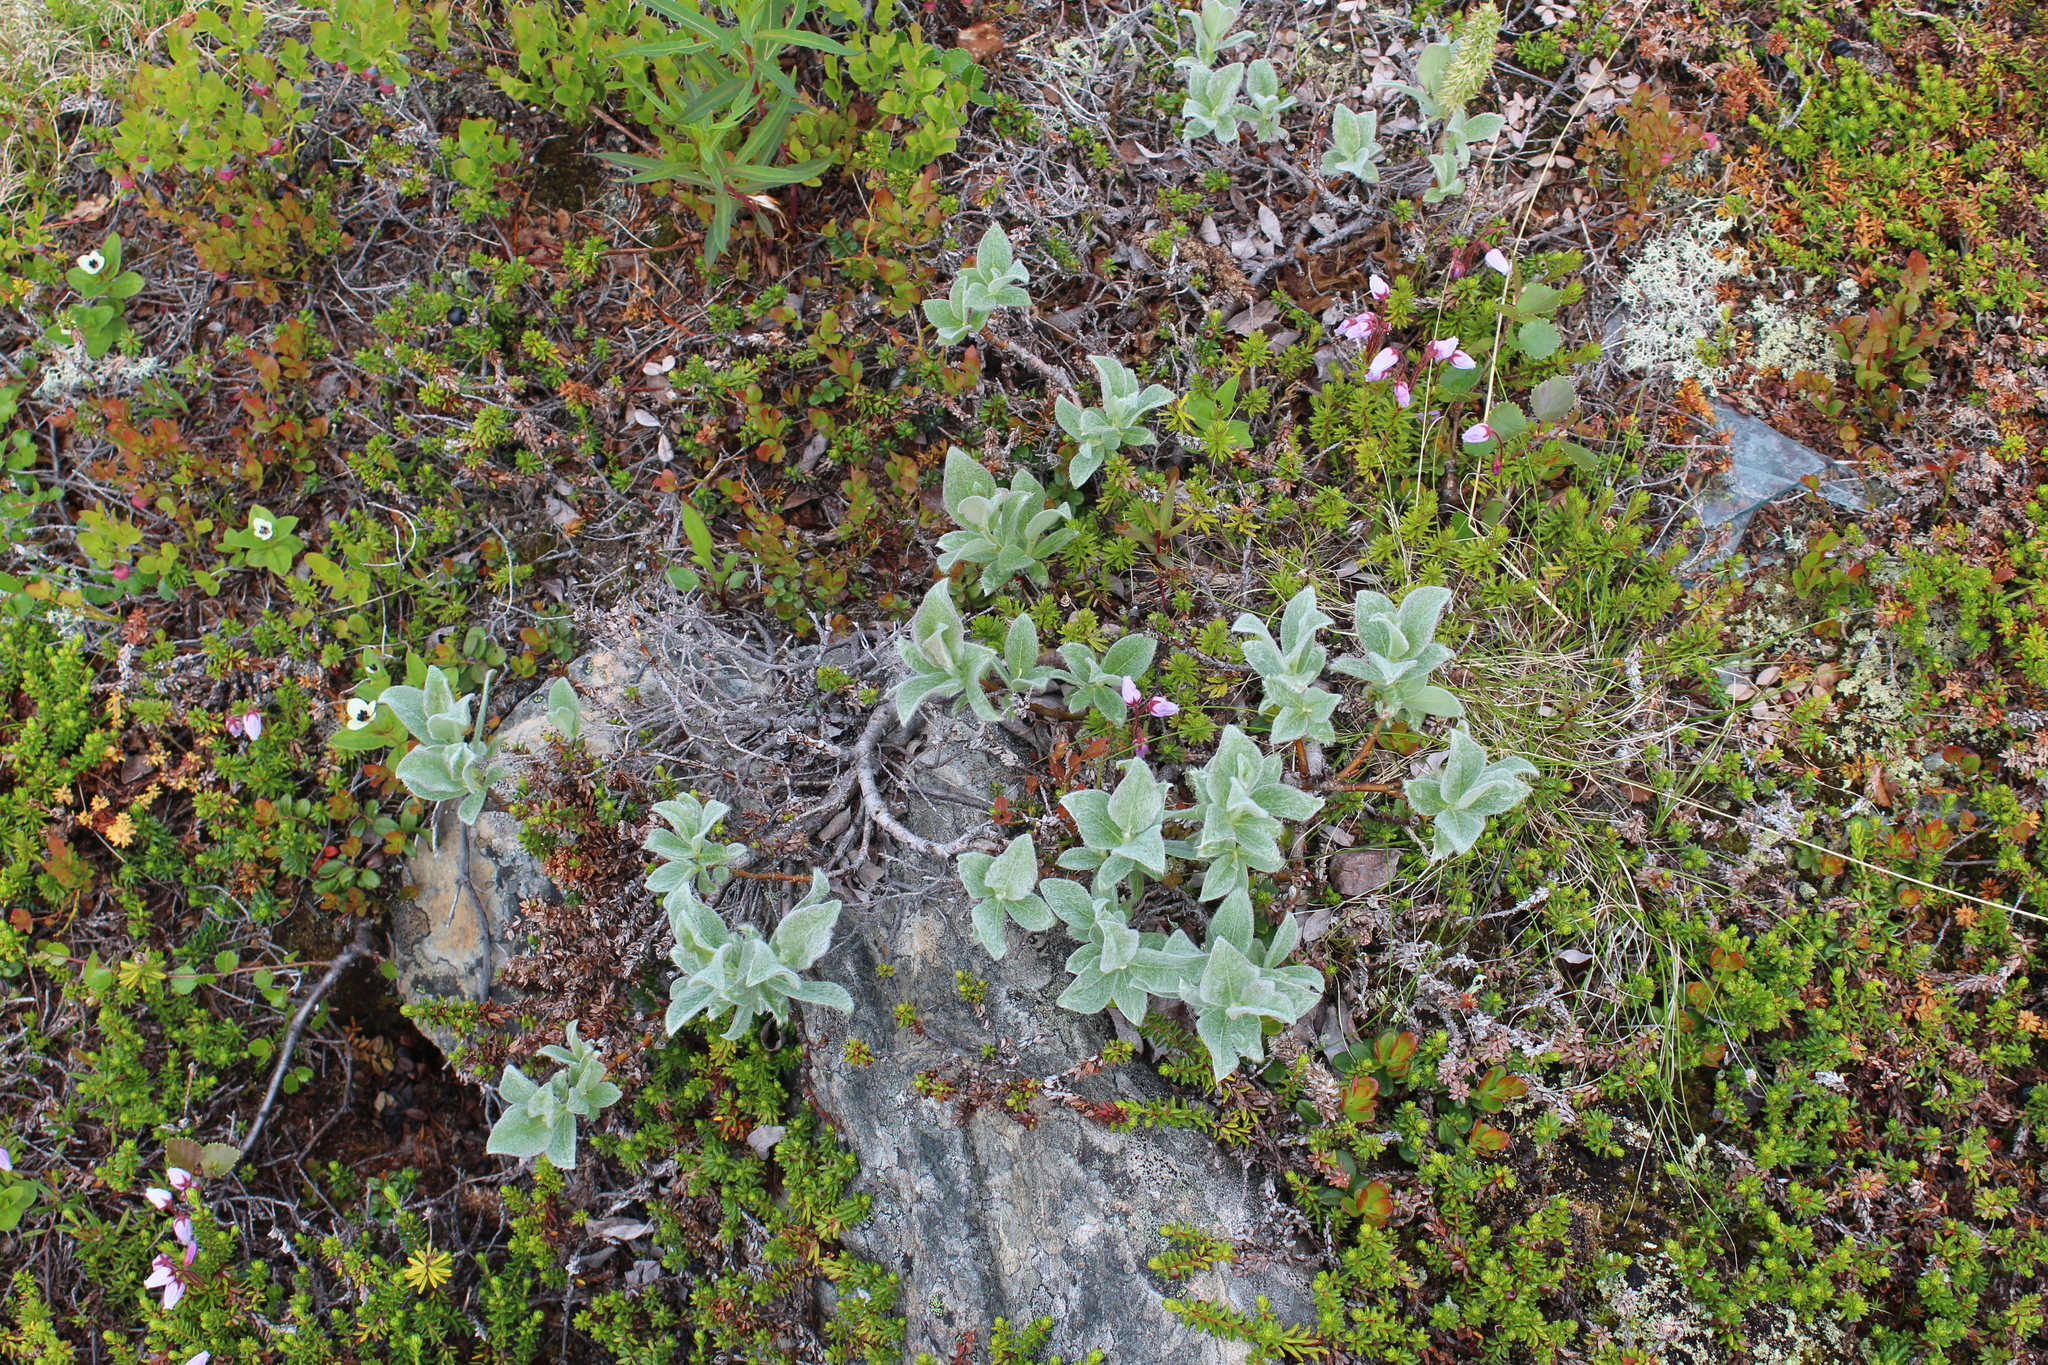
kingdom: Plantae
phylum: Tracheophyta
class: Magnoliopsida
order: Malpighiales
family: Salicaceae
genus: Salix
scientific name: Salix lanata
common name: Woolly willow
